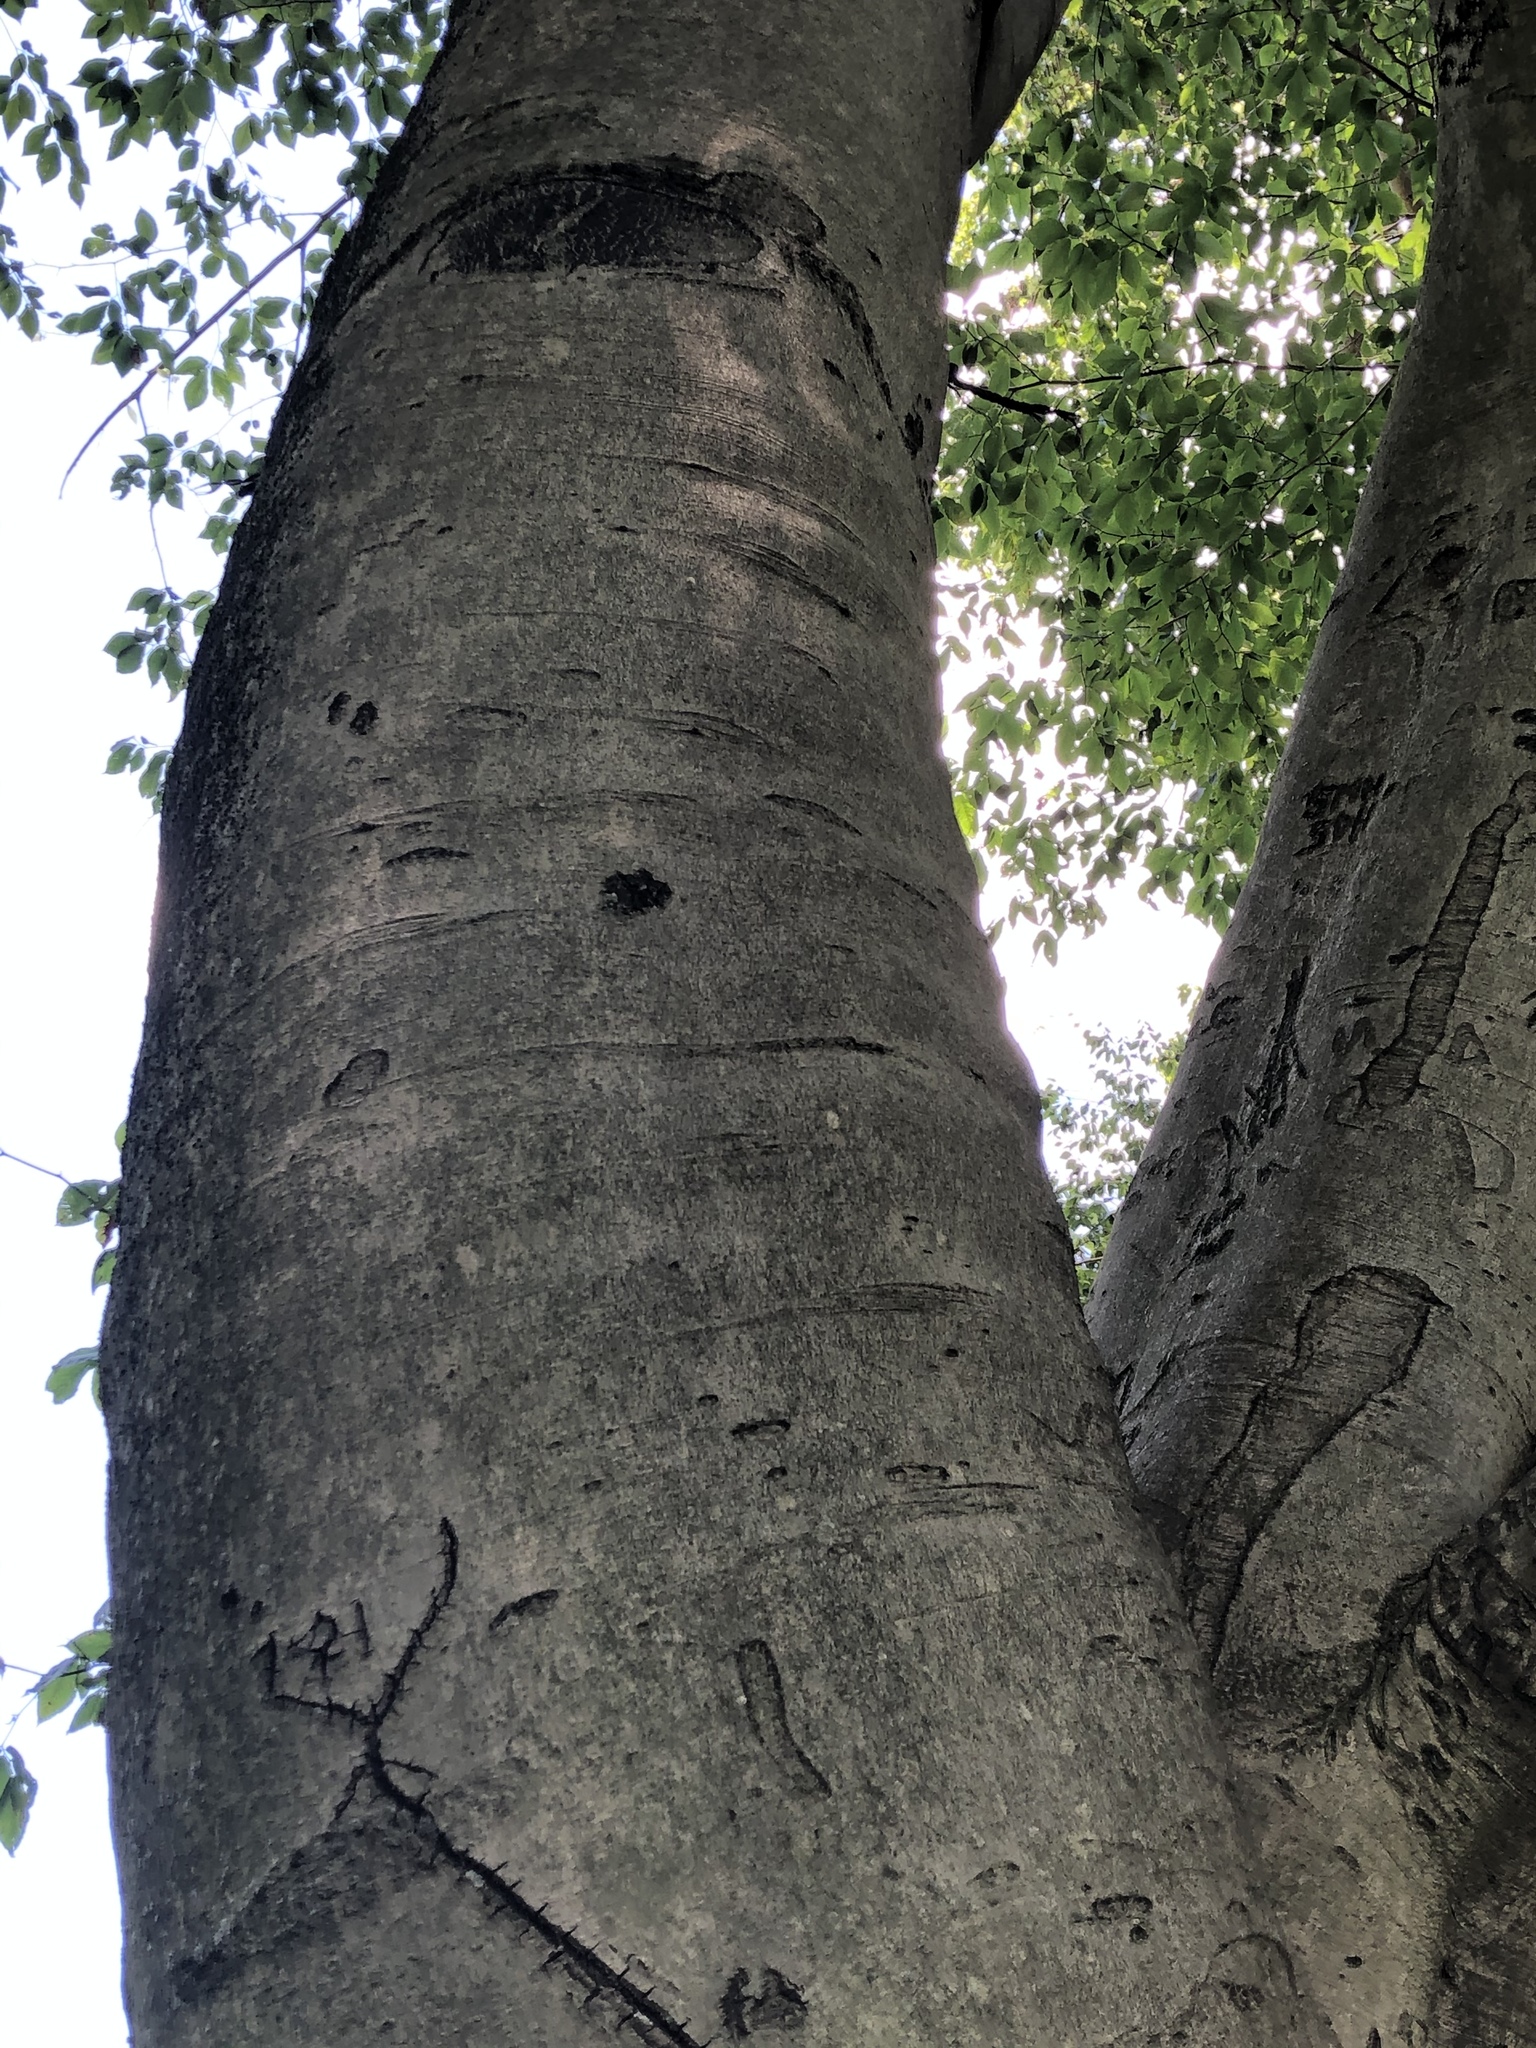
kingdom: Plantae
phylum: Tracheophyta
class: Magnoliopsida
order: Fagales
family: Fagaceae
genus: Fagus
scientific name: Fagus grandifolia
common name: American beech
